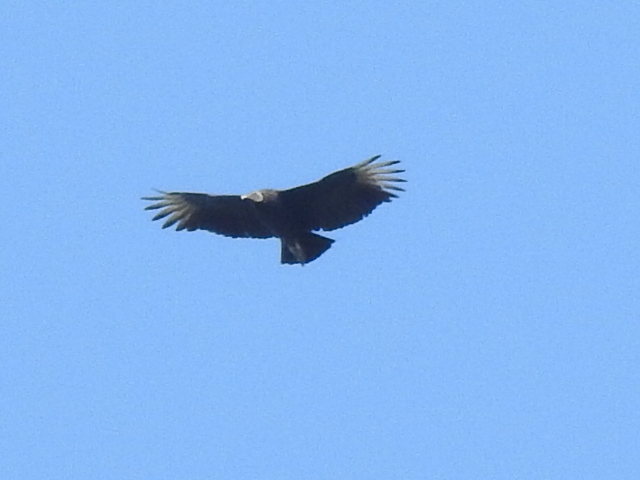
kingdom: Animalia
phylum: Chordata
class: Aves
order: Accipitriformes
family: Cathartidae
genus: Coragyps
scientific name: Coragyps atratus
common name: Black vulture
